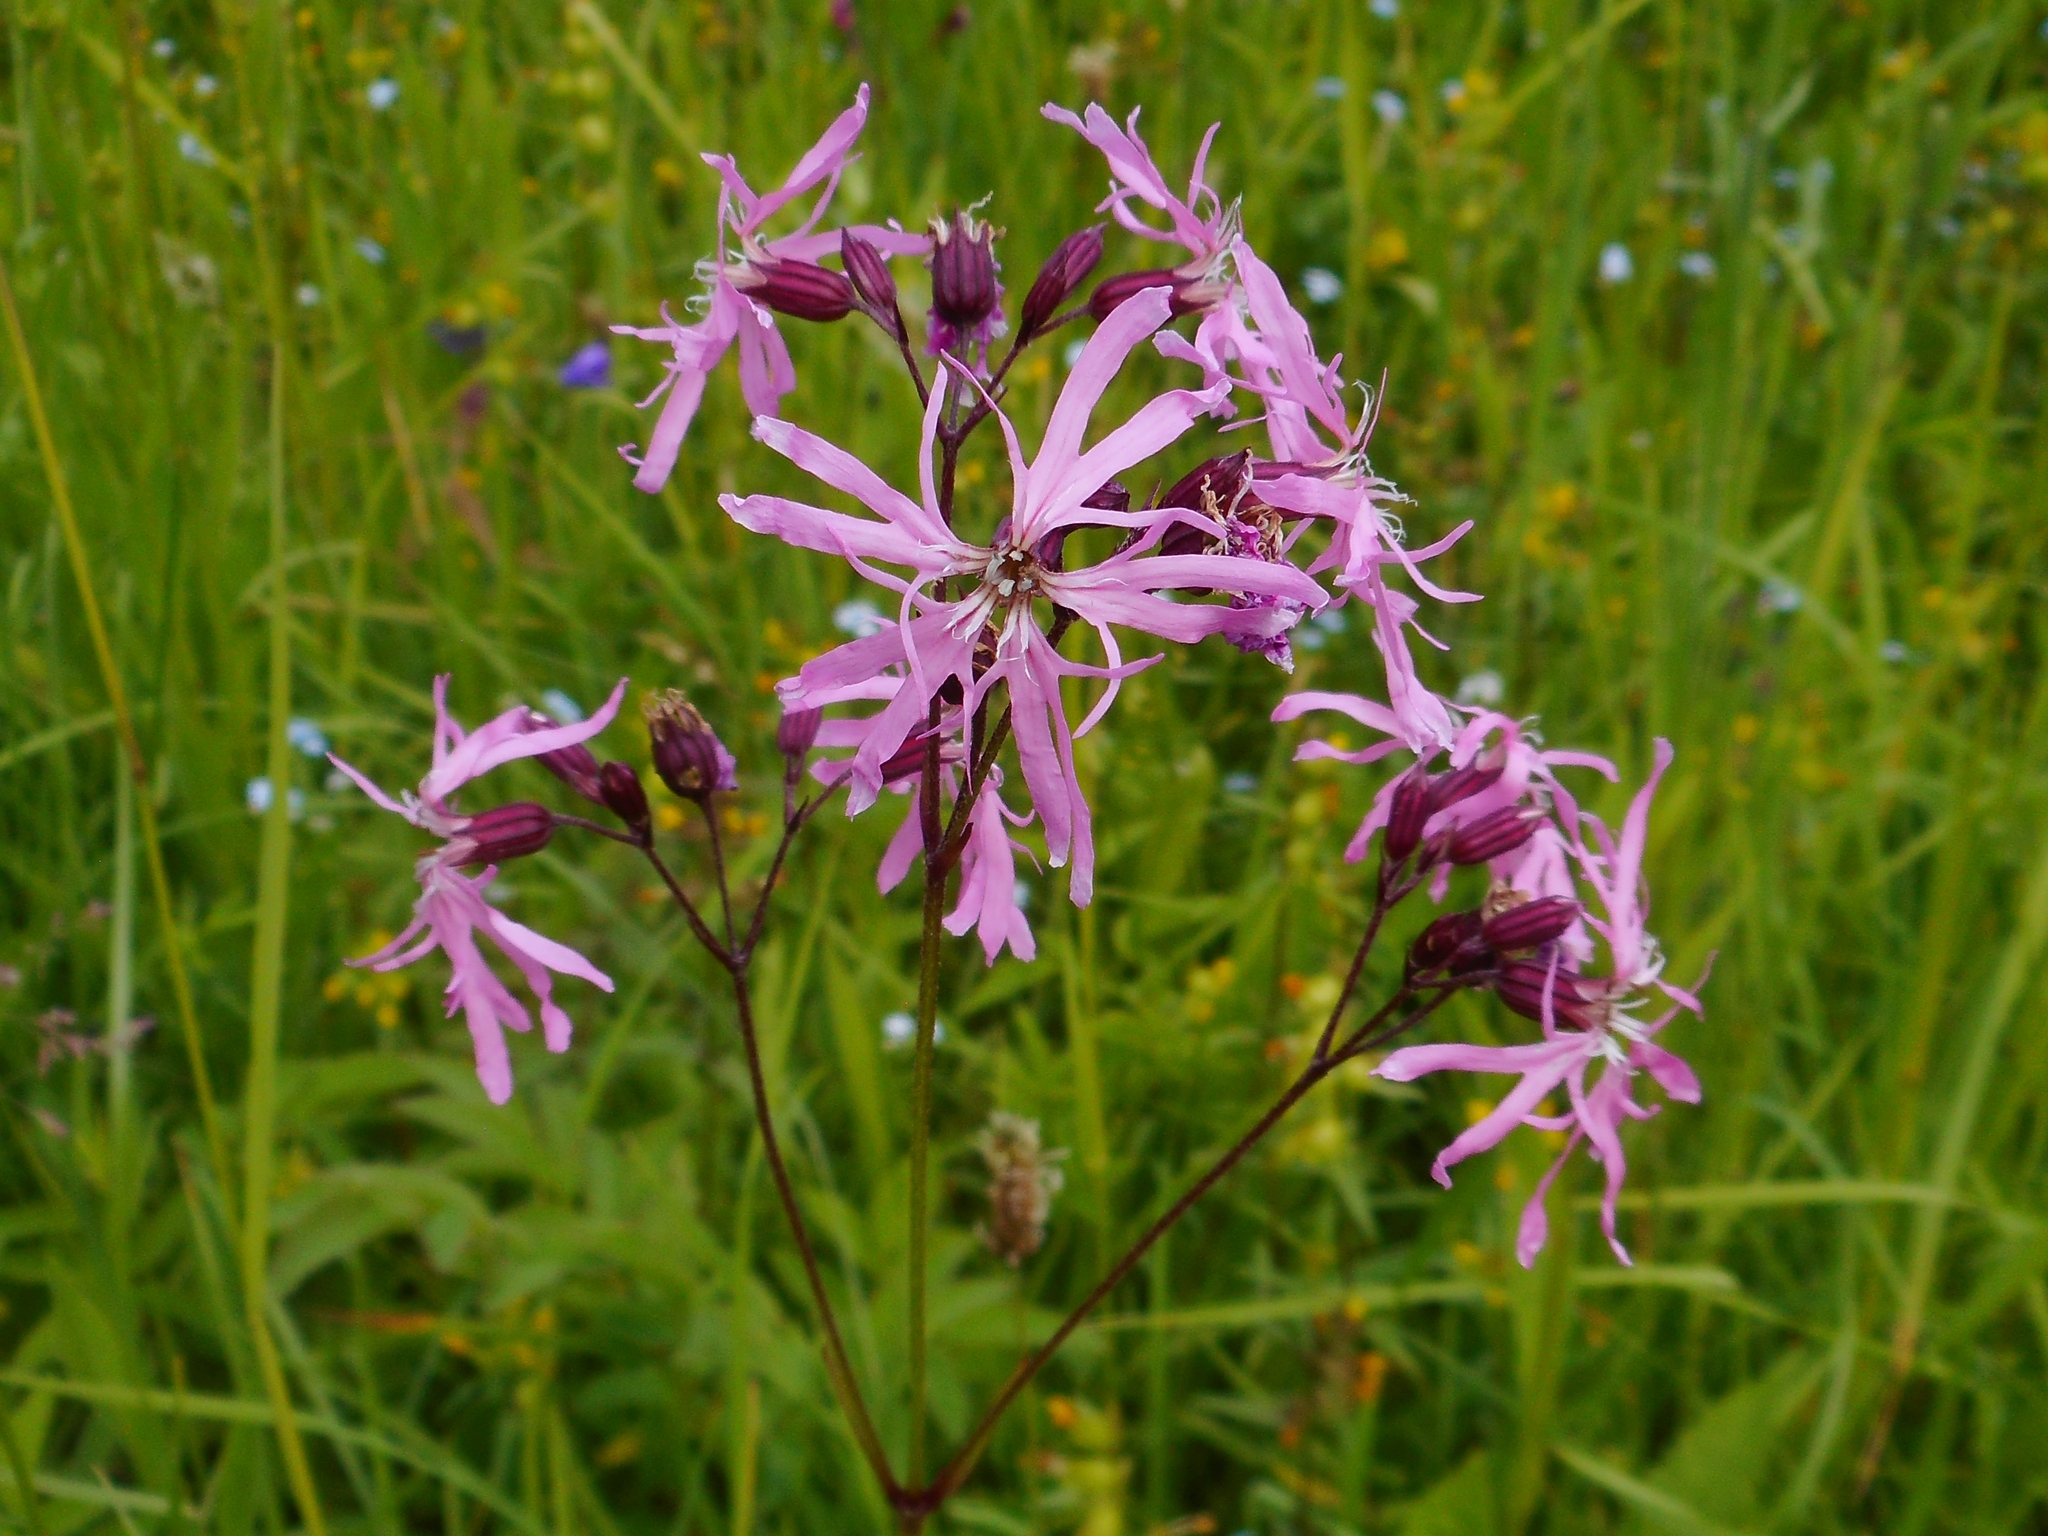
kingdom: Plantae
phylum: Tracheophyta
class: Magnoliopsida
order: Caryophyllales
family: Caryophyllaceae
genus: Silene
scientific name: Silene flos-cuculi
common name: Ragged-robin
